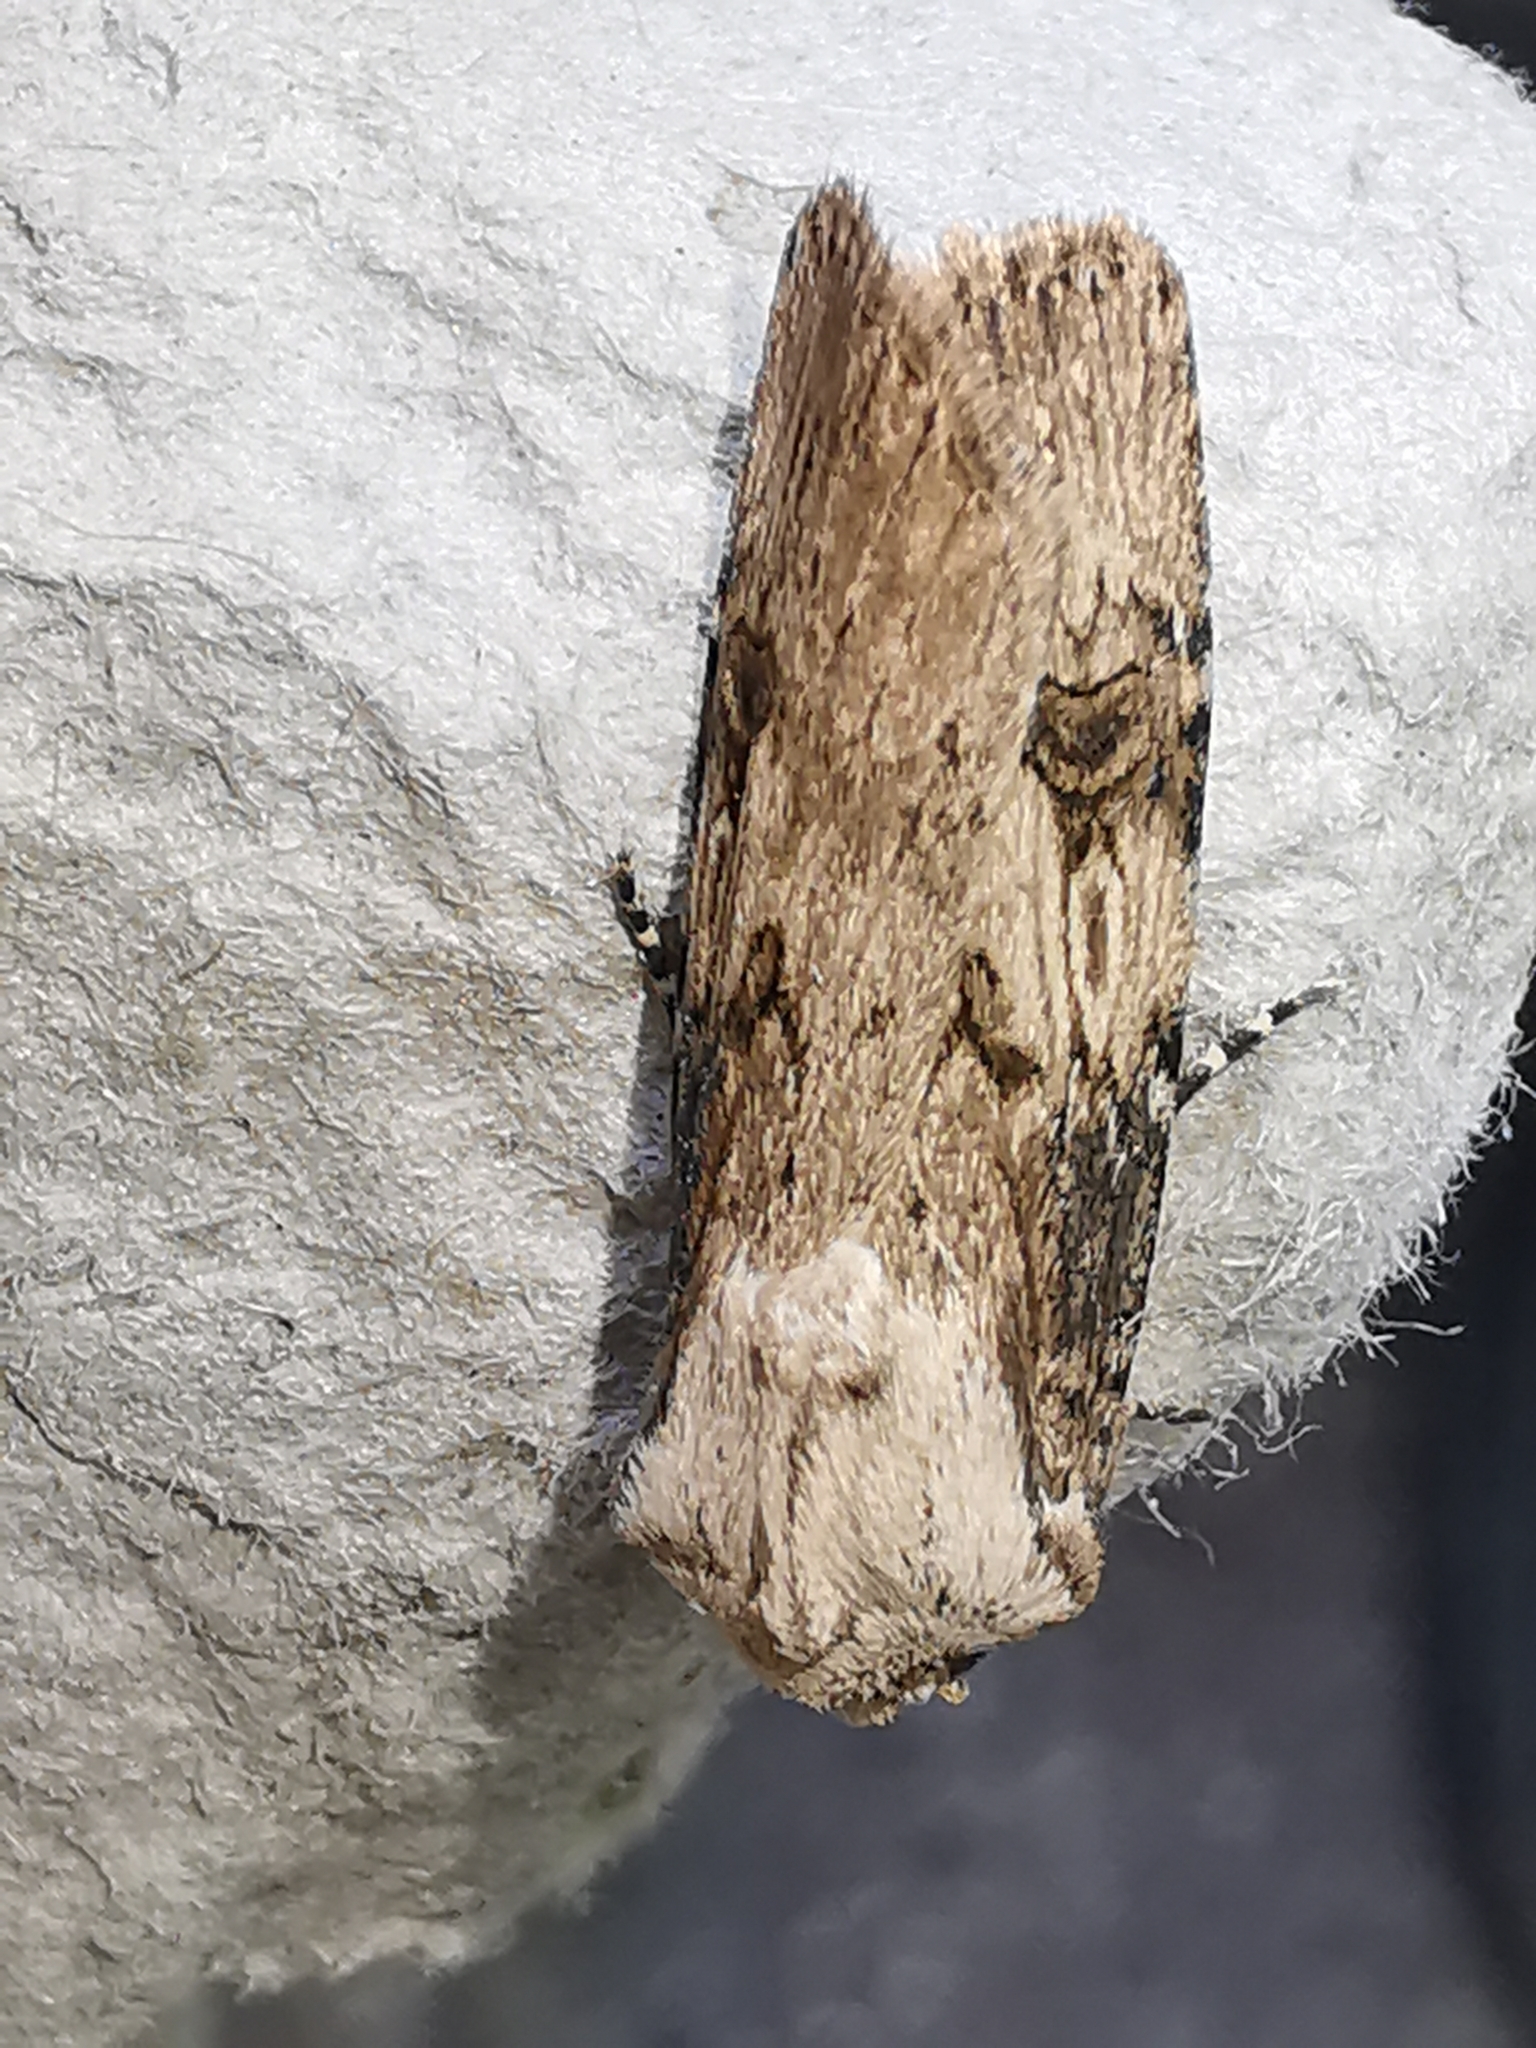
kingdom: Animalia
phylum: Arthropoda
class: Insecta
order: Lepidoptera
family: Noctuidae
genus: Agrotis
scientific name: Agrotis puta
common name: Shuttle-shaped dart
